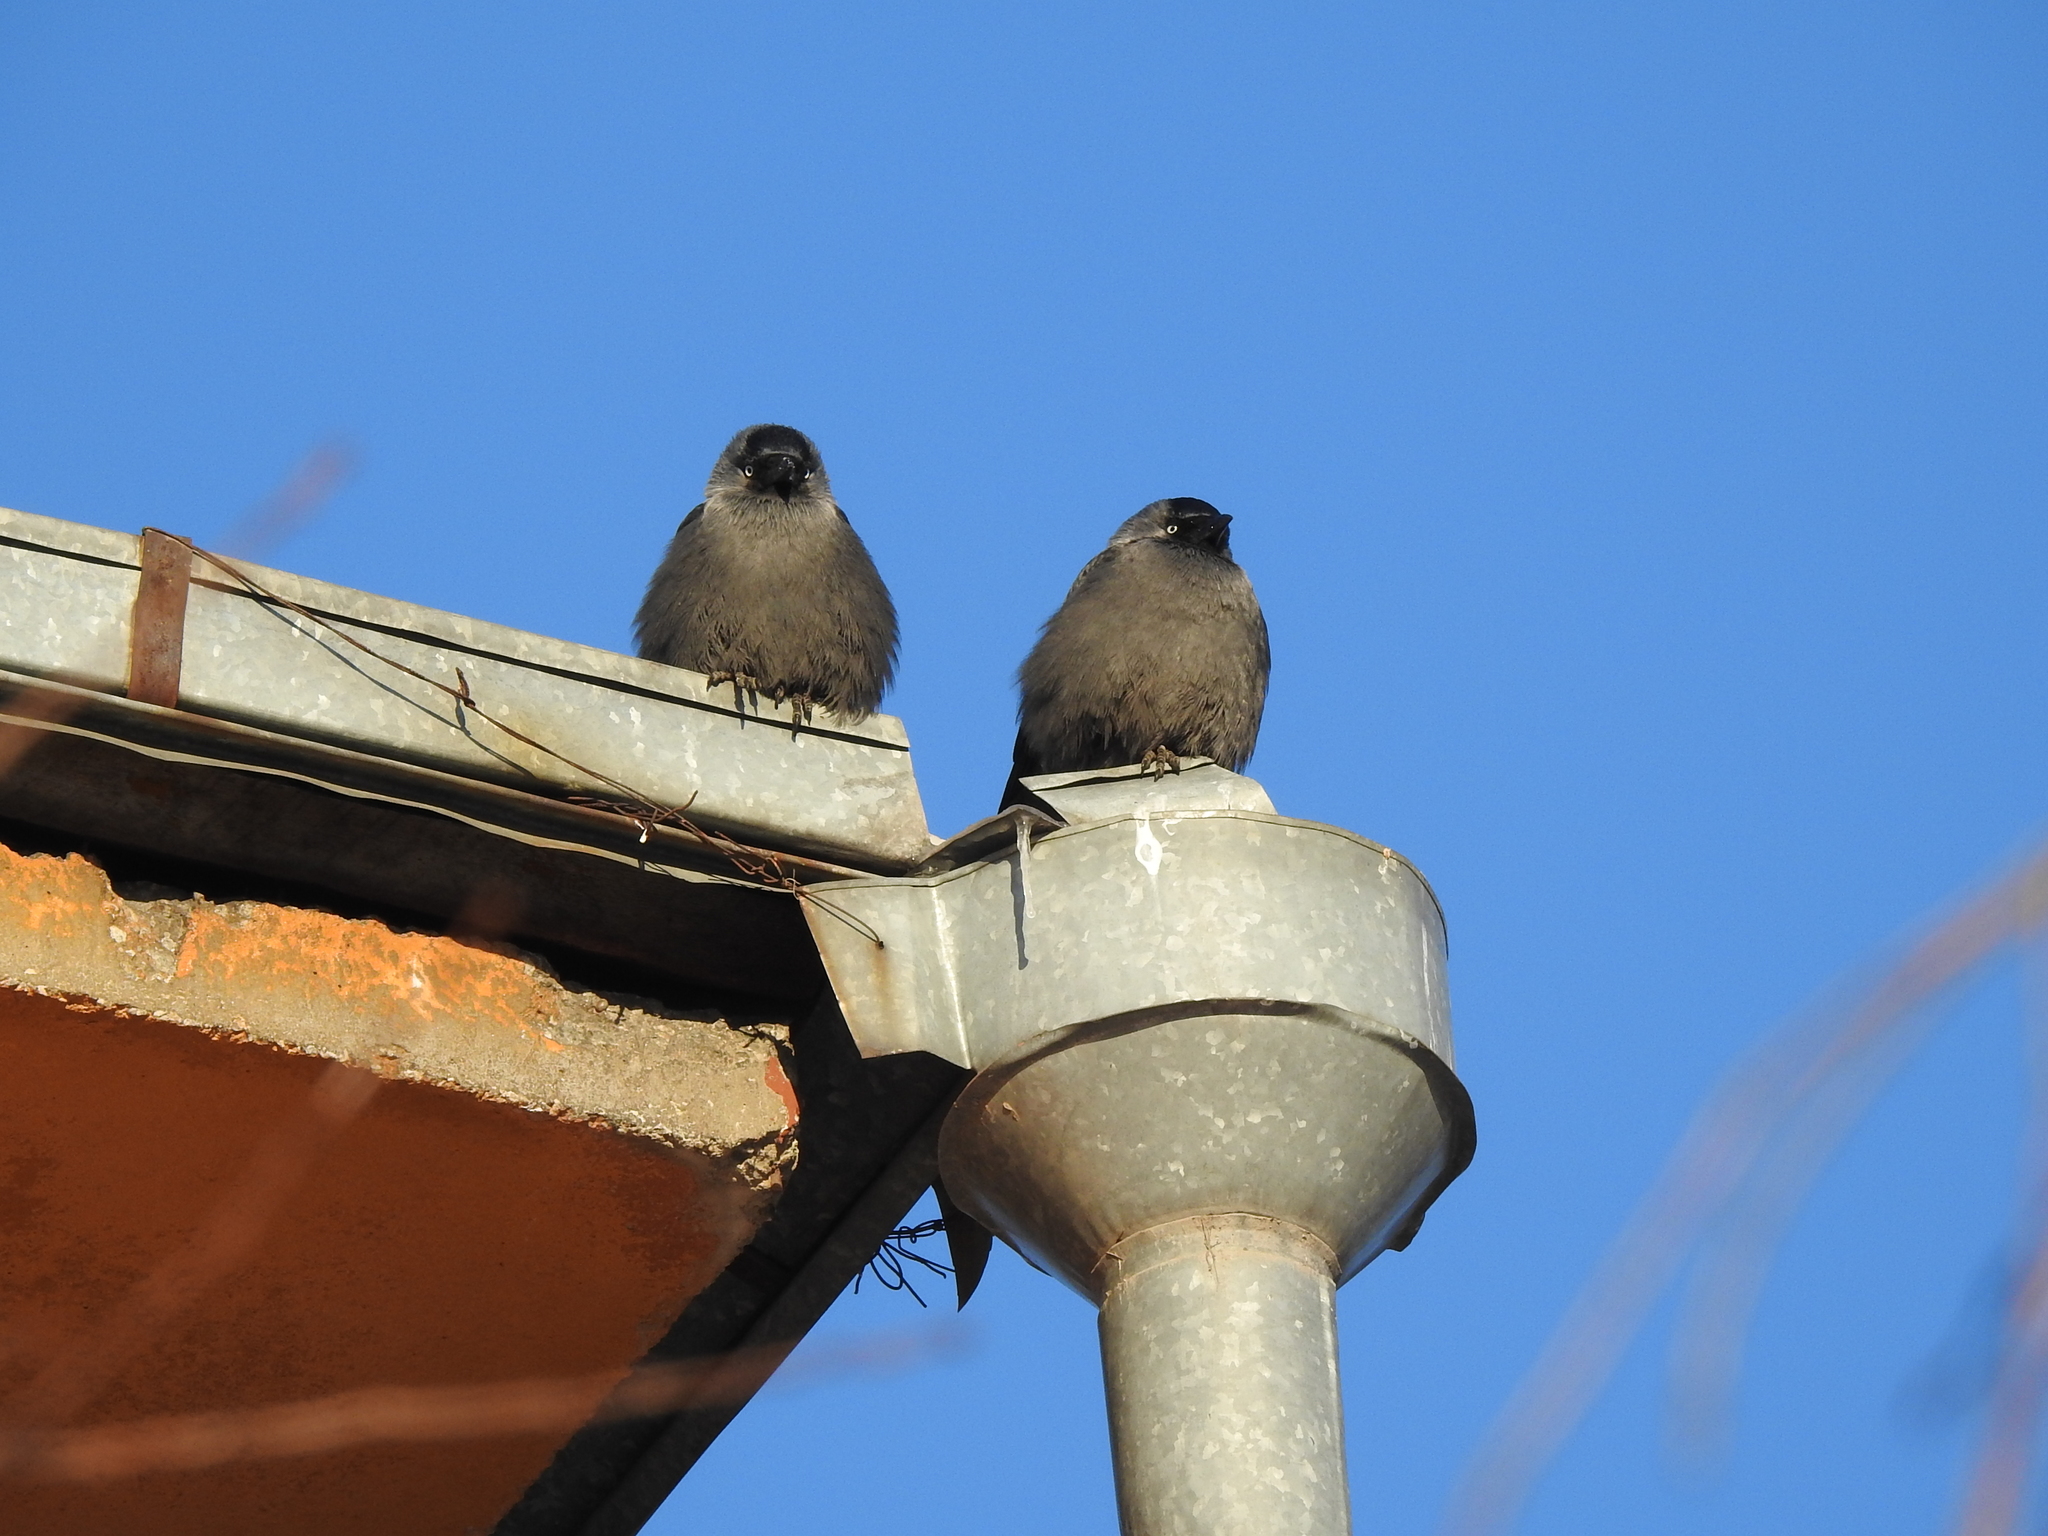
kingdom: Animalia
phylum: Chordata
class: Aves
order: Passeriformes
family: Corvidae
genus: Coloeus
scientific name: Coloeus monedula
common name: Western jackdaw
